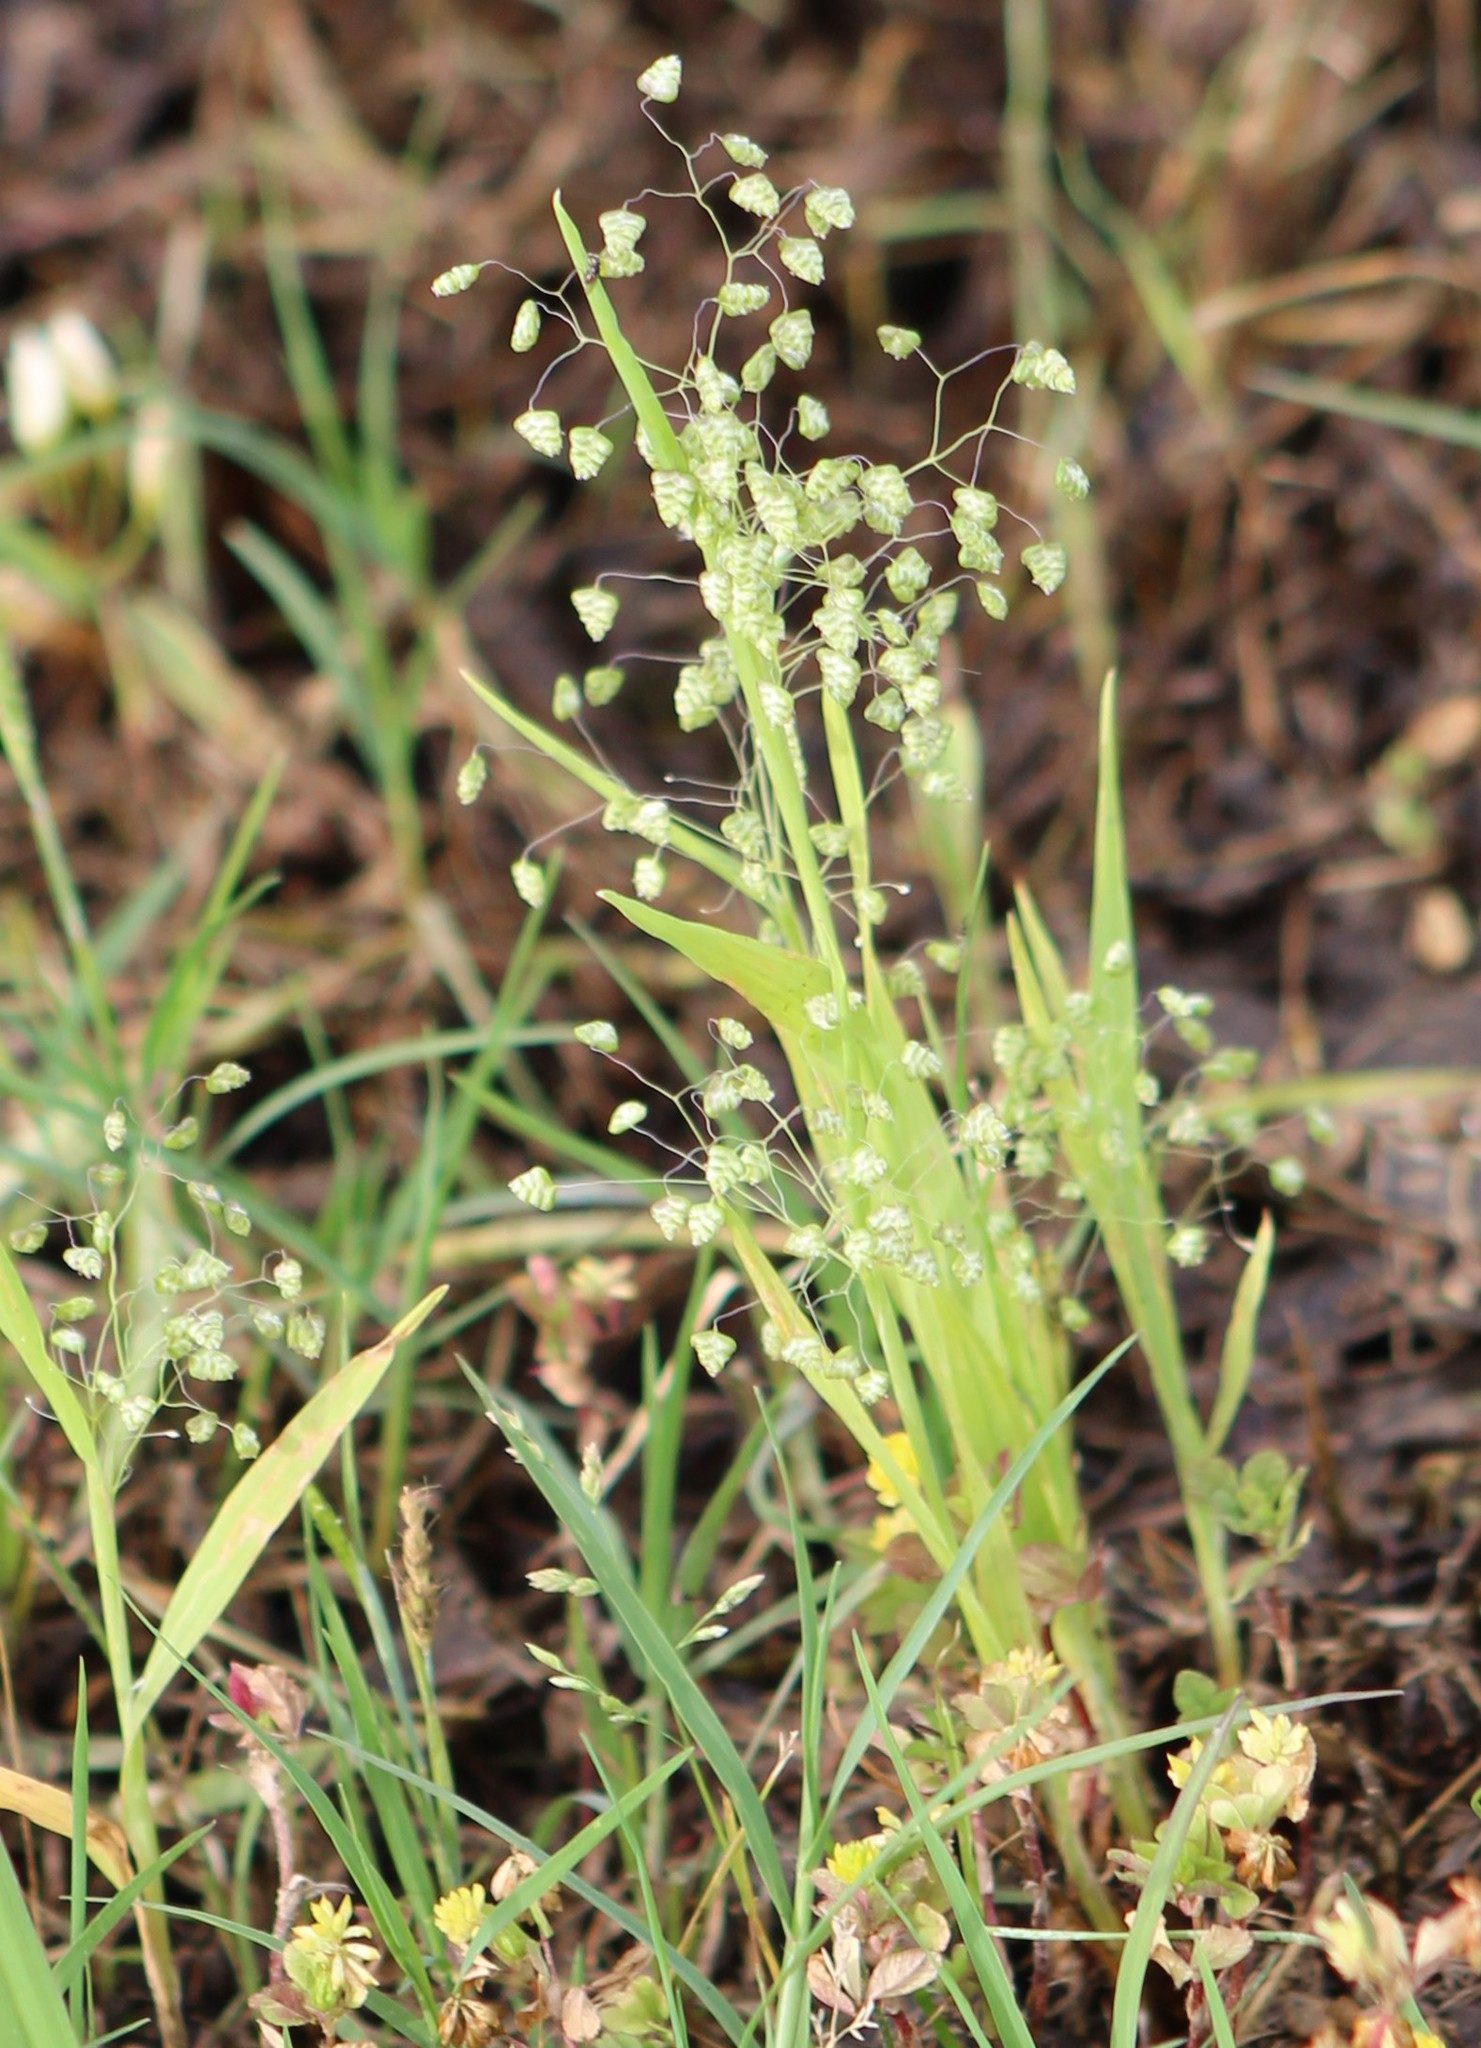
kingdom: Plantae
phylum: Tracheophyta
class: Liliopsida
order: Poales
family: Poaceae
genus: Briza
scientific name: Briza minor
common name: Lesser quaking-grass
